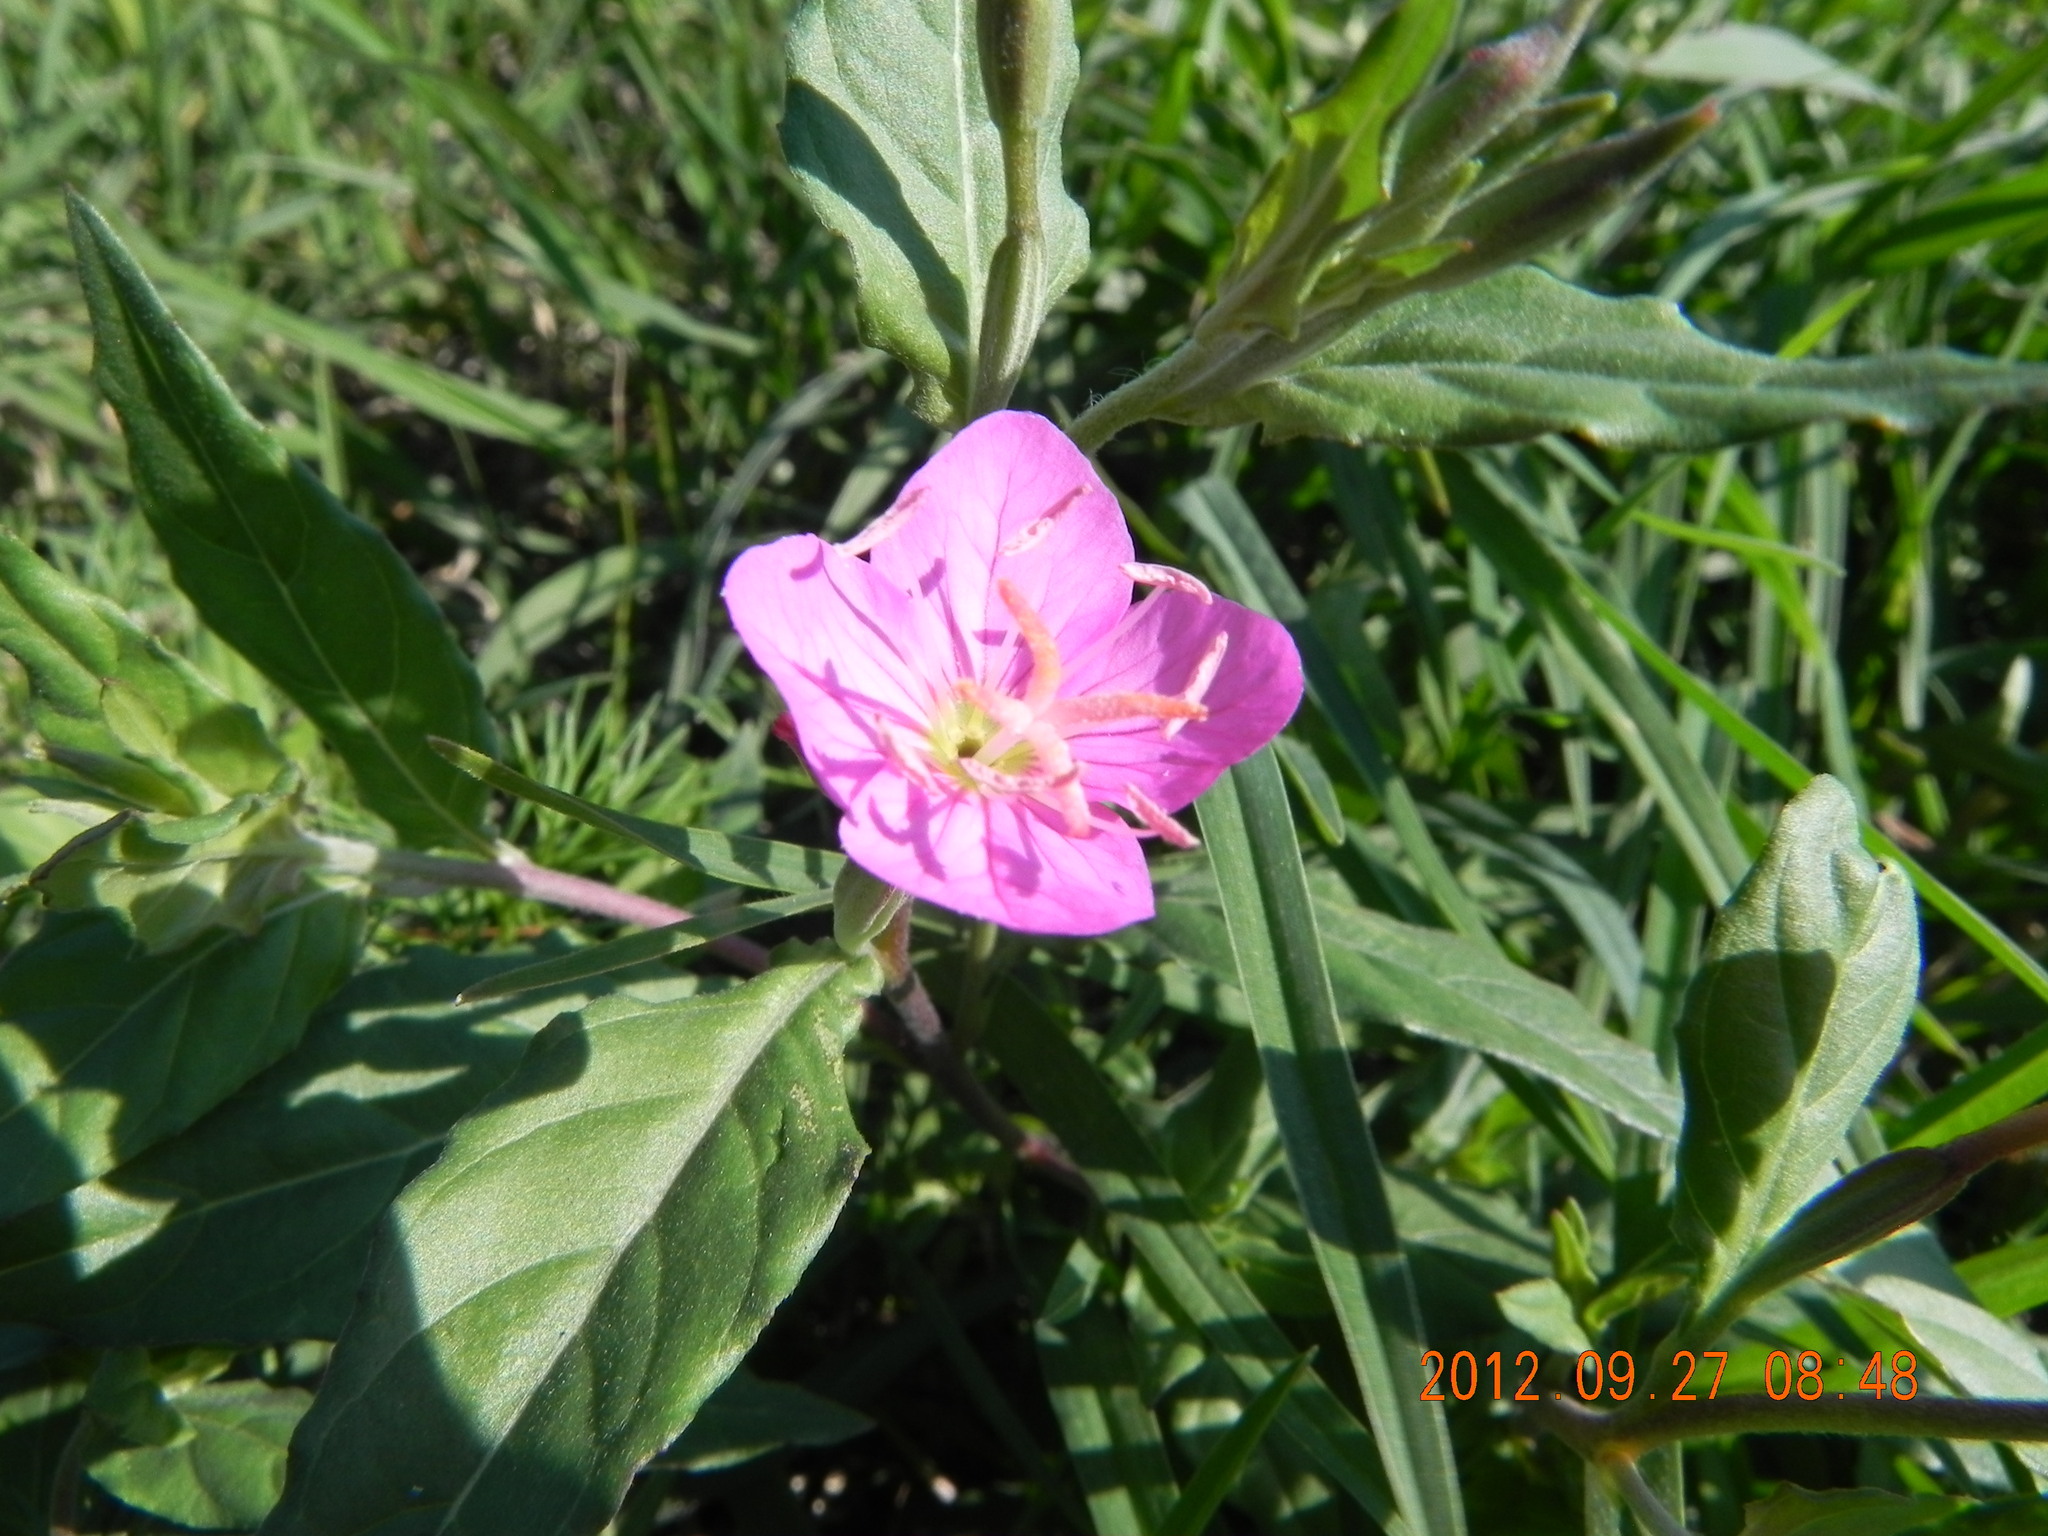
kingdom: Plantae
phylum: Tracheophyta
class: Magnoliopsida
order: Myrtales
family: Onagraceae
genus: Oenothera
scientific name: Oenothera rosea
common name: Rosy evening-primrose
